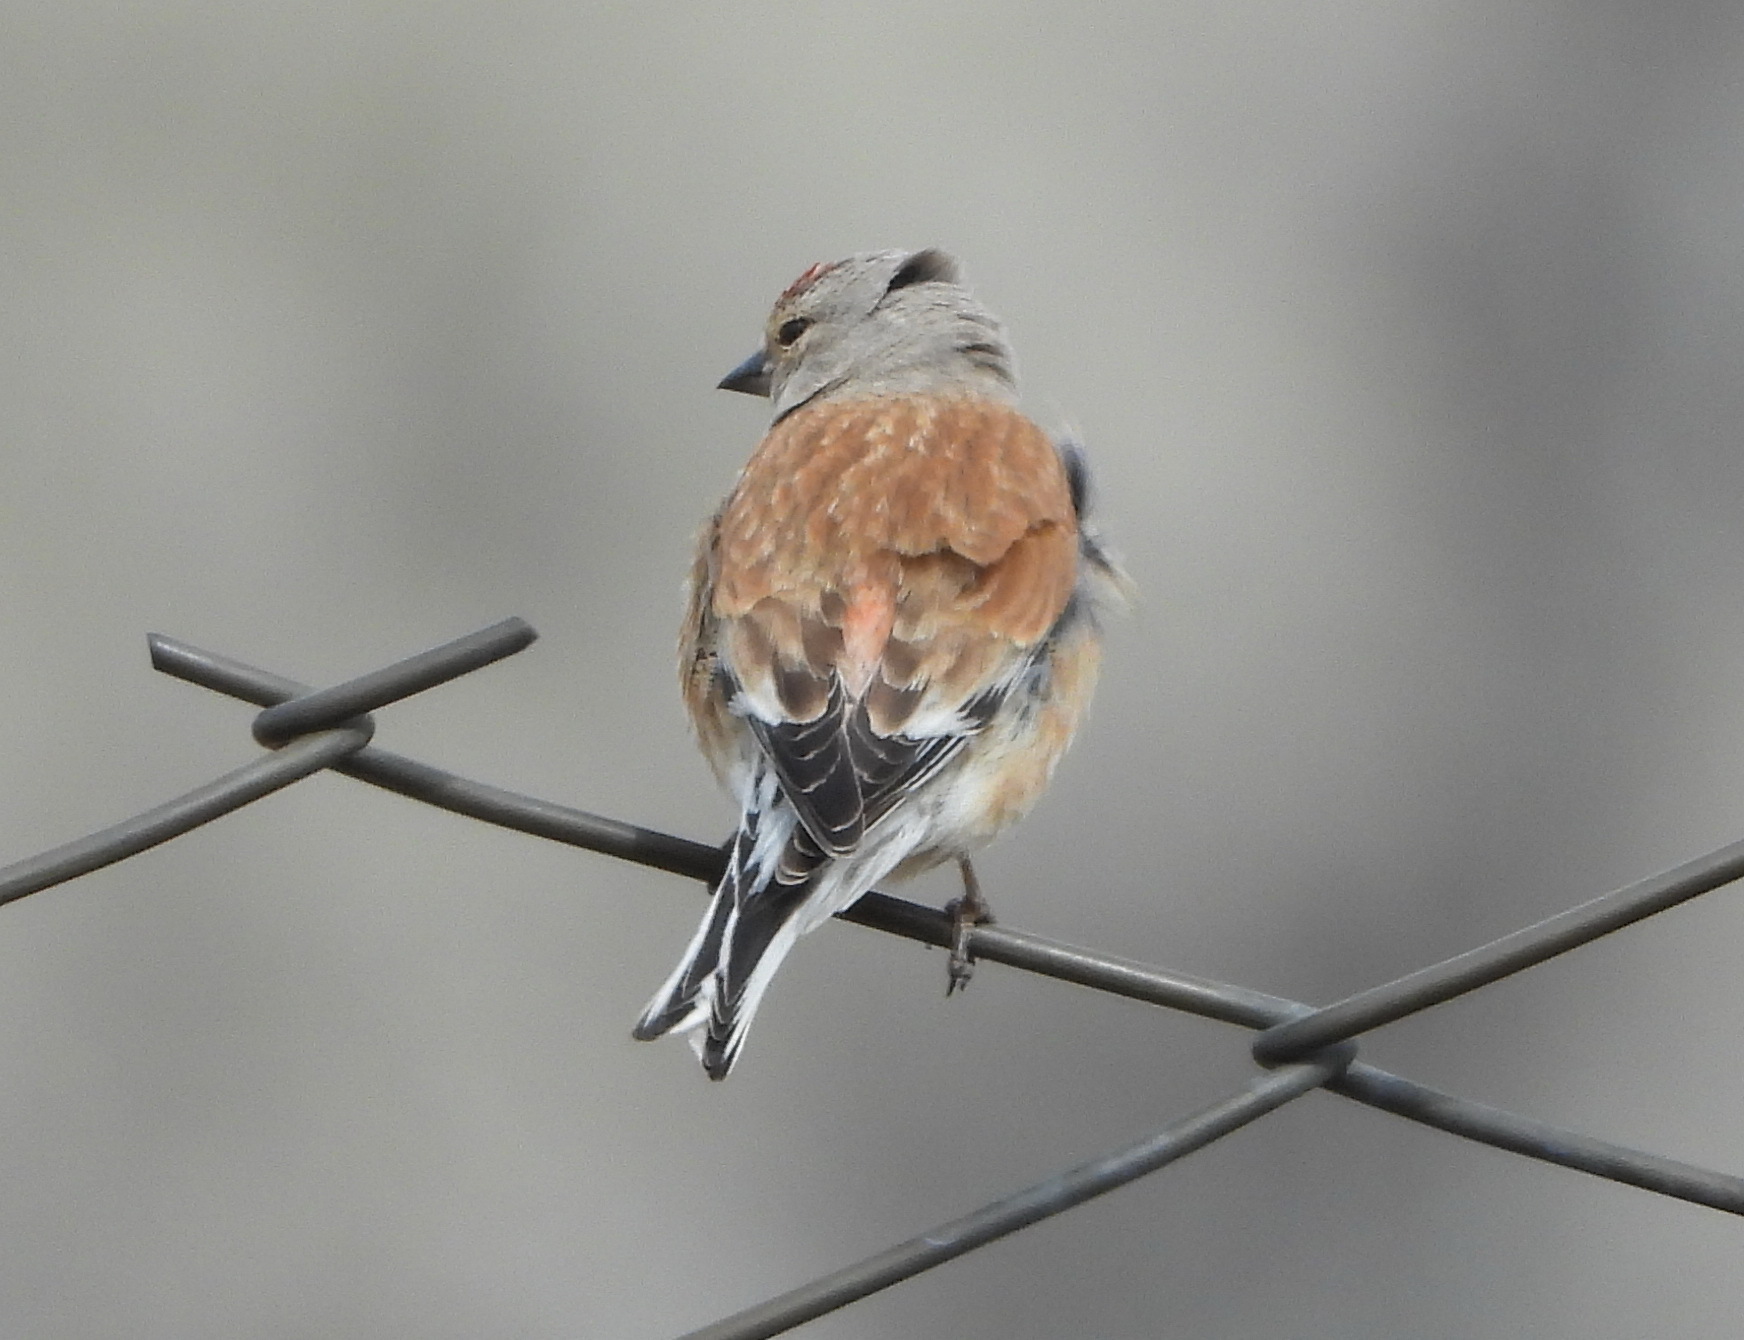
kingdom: Animalia
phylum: Chordata
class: Aves
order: Passeriformes
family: Fringillidae
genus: Linaria
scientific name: Linaria cannabina
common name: Common linnet
